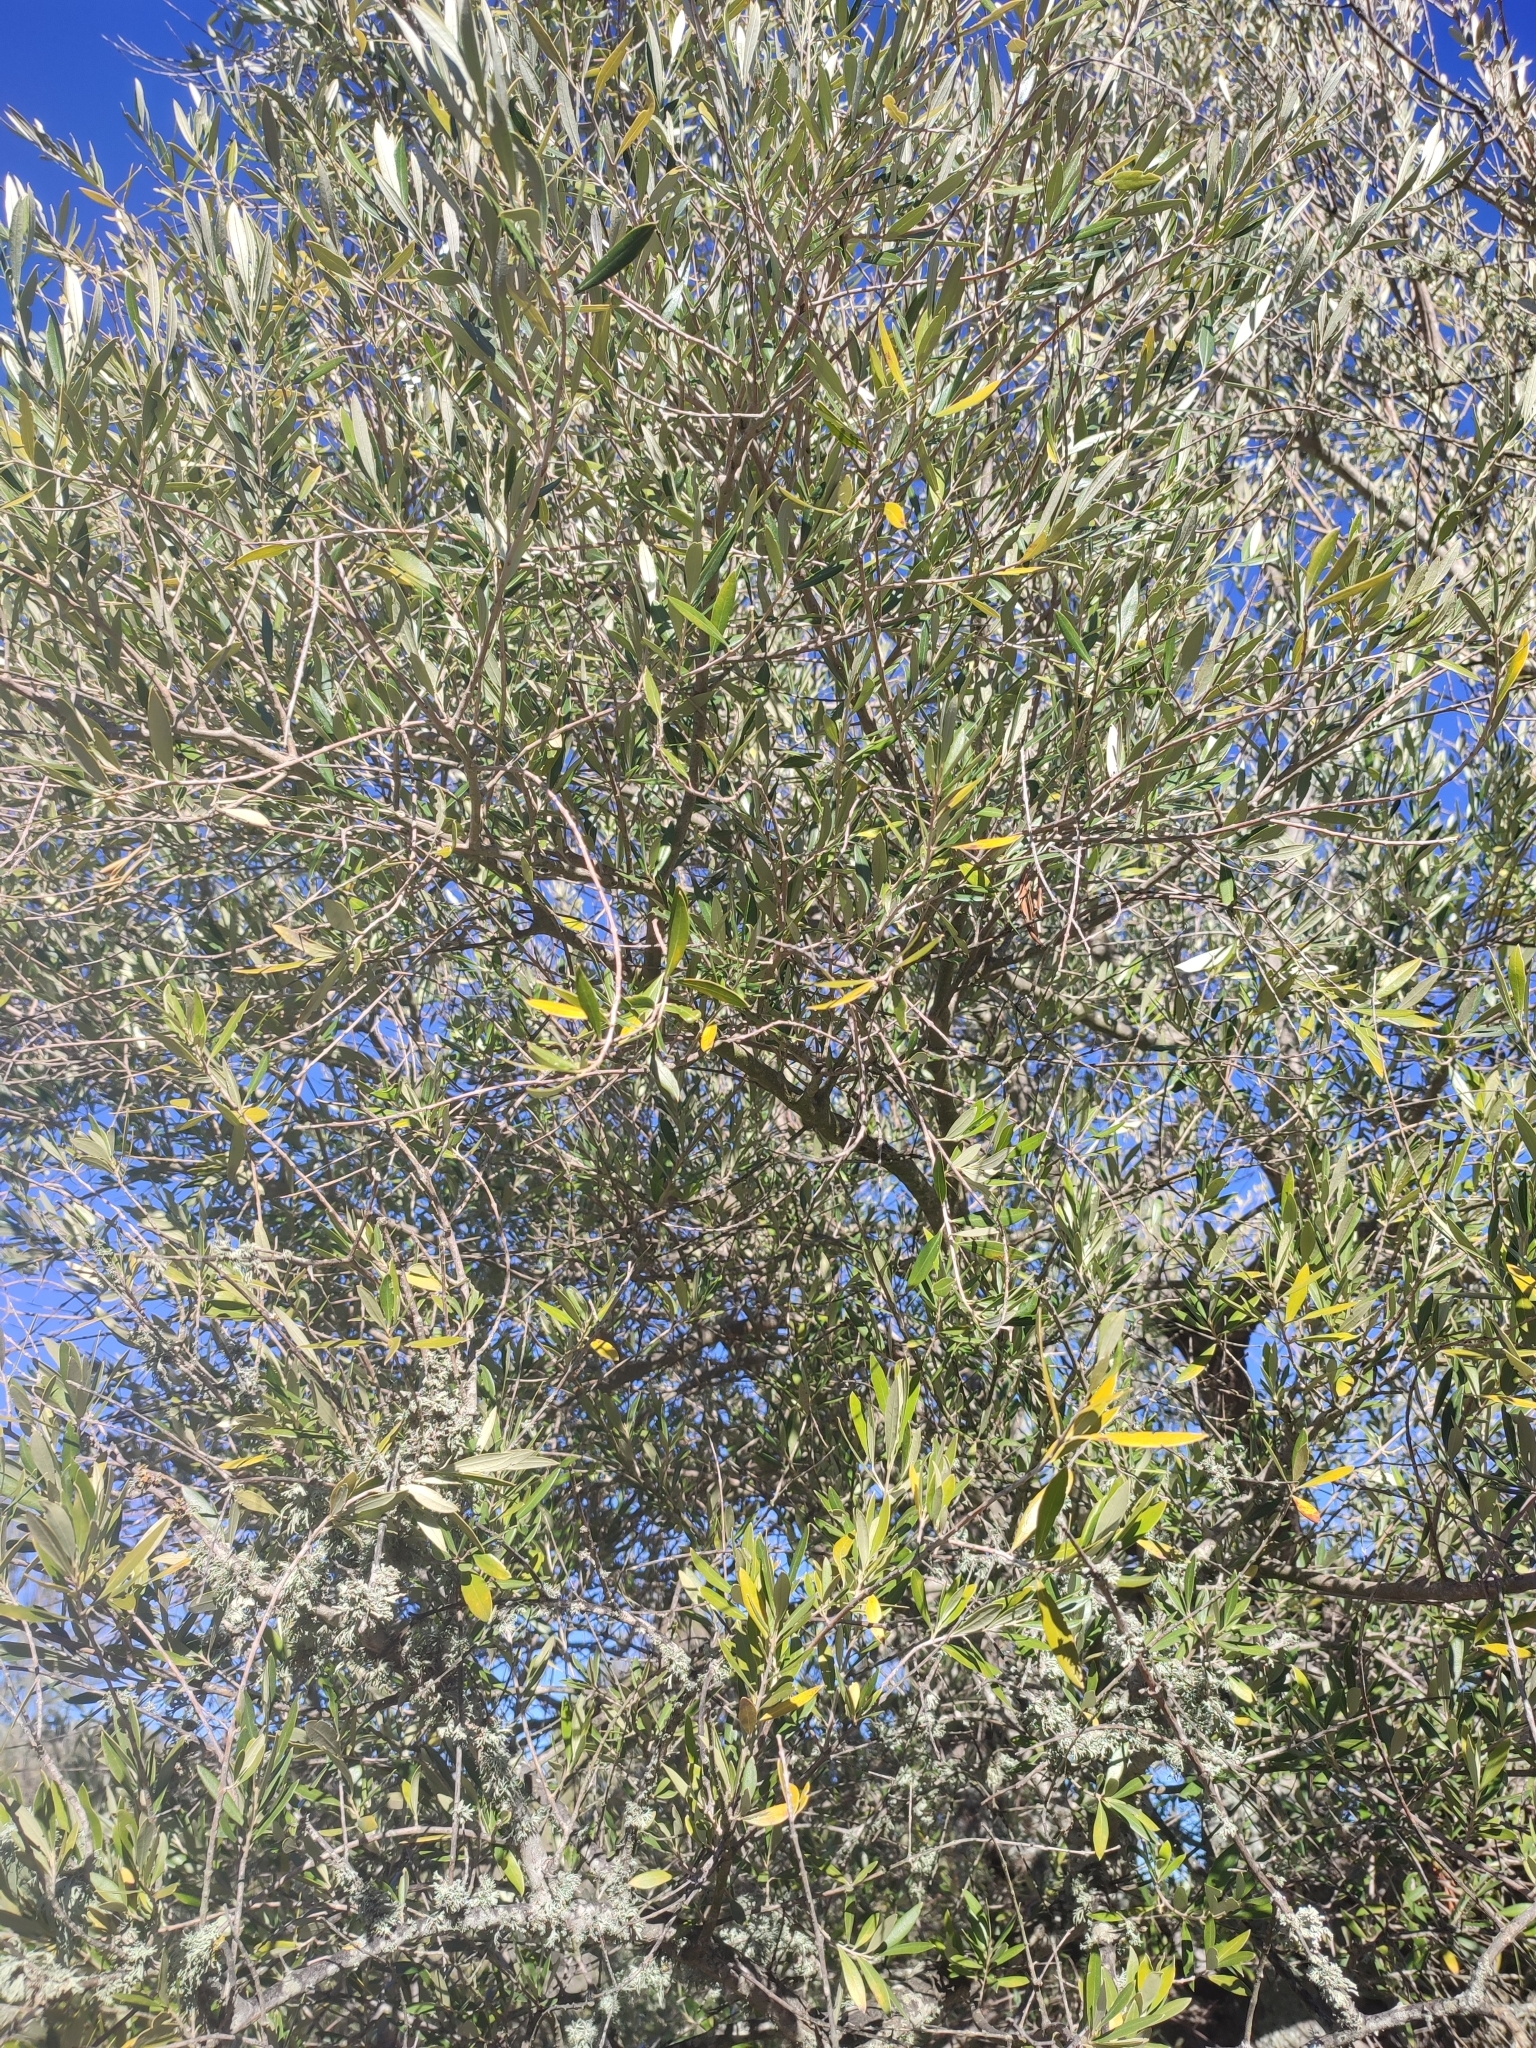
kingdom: Plantae
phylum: Tracheophyta
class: Magnoliopsida
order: Lamiales
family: Oleaceae
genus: Olea
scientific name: Olea europaea
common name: Olive
